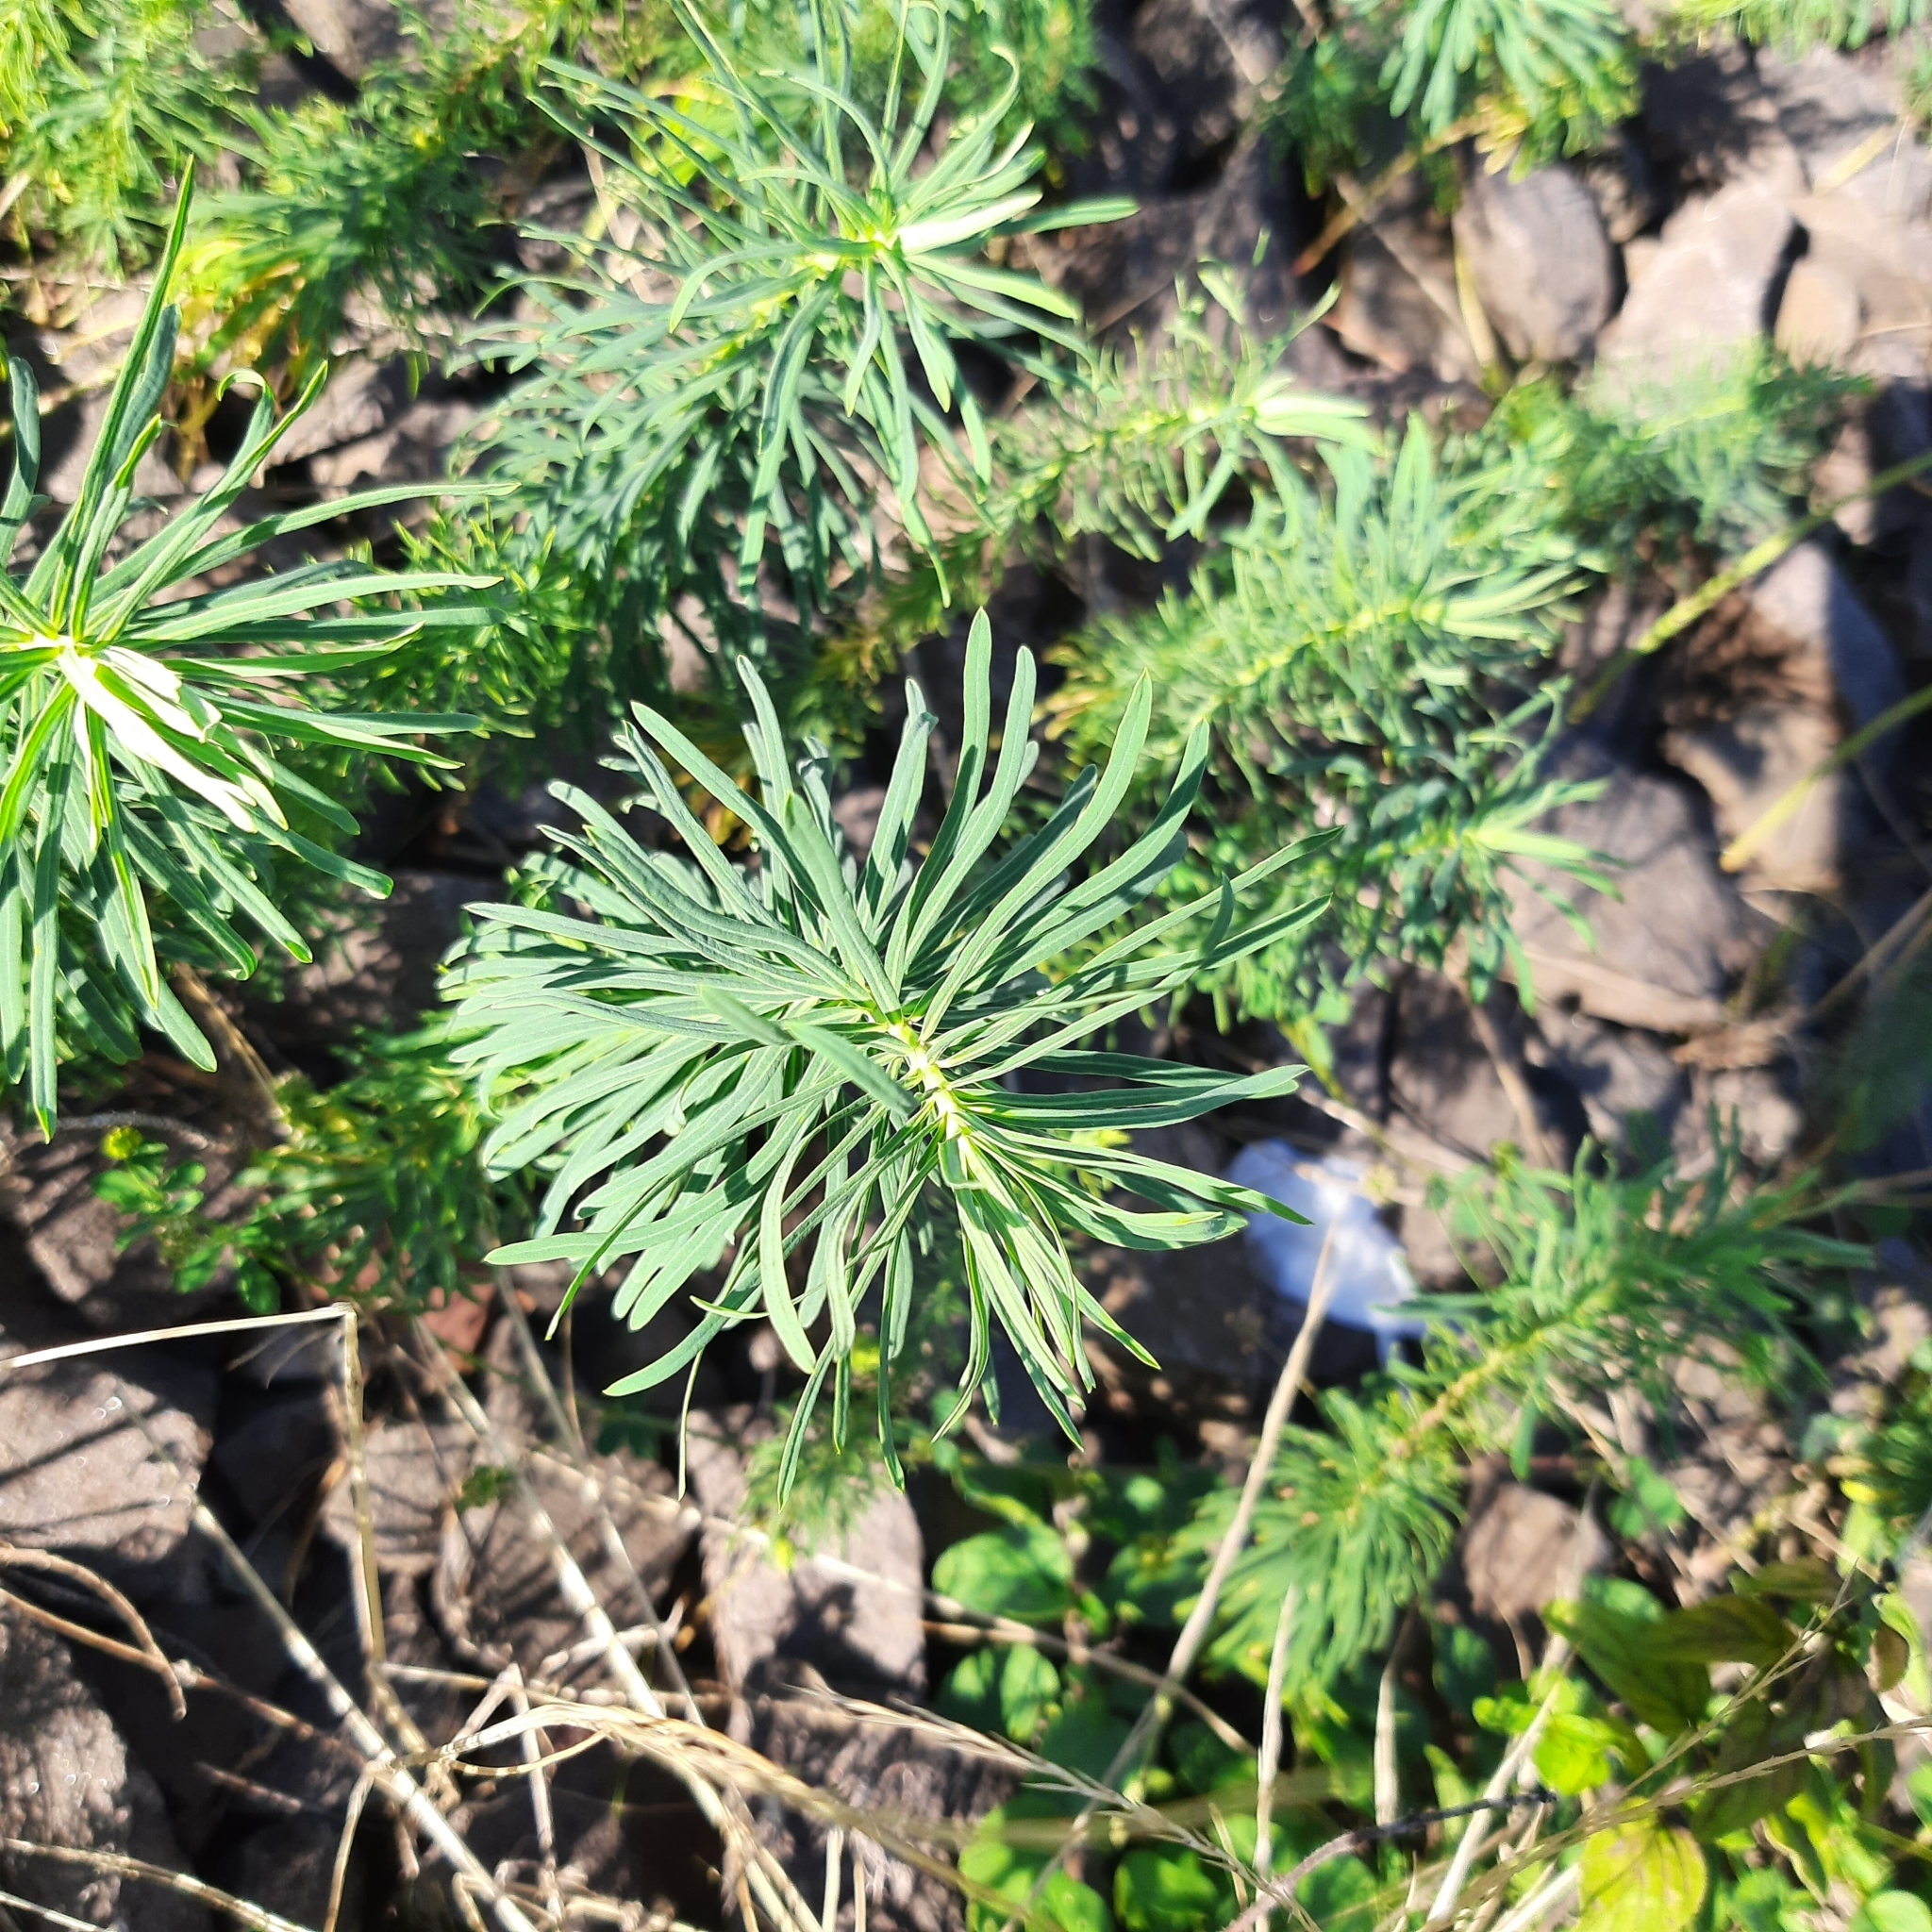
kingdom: Plantae
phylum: Tracheophyta
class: Magnoliopsida
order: Malpighiales
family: Euphorbiaceae
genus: Euphorbia
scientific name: Euphorbia cyparissias
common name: Cypress spurge
